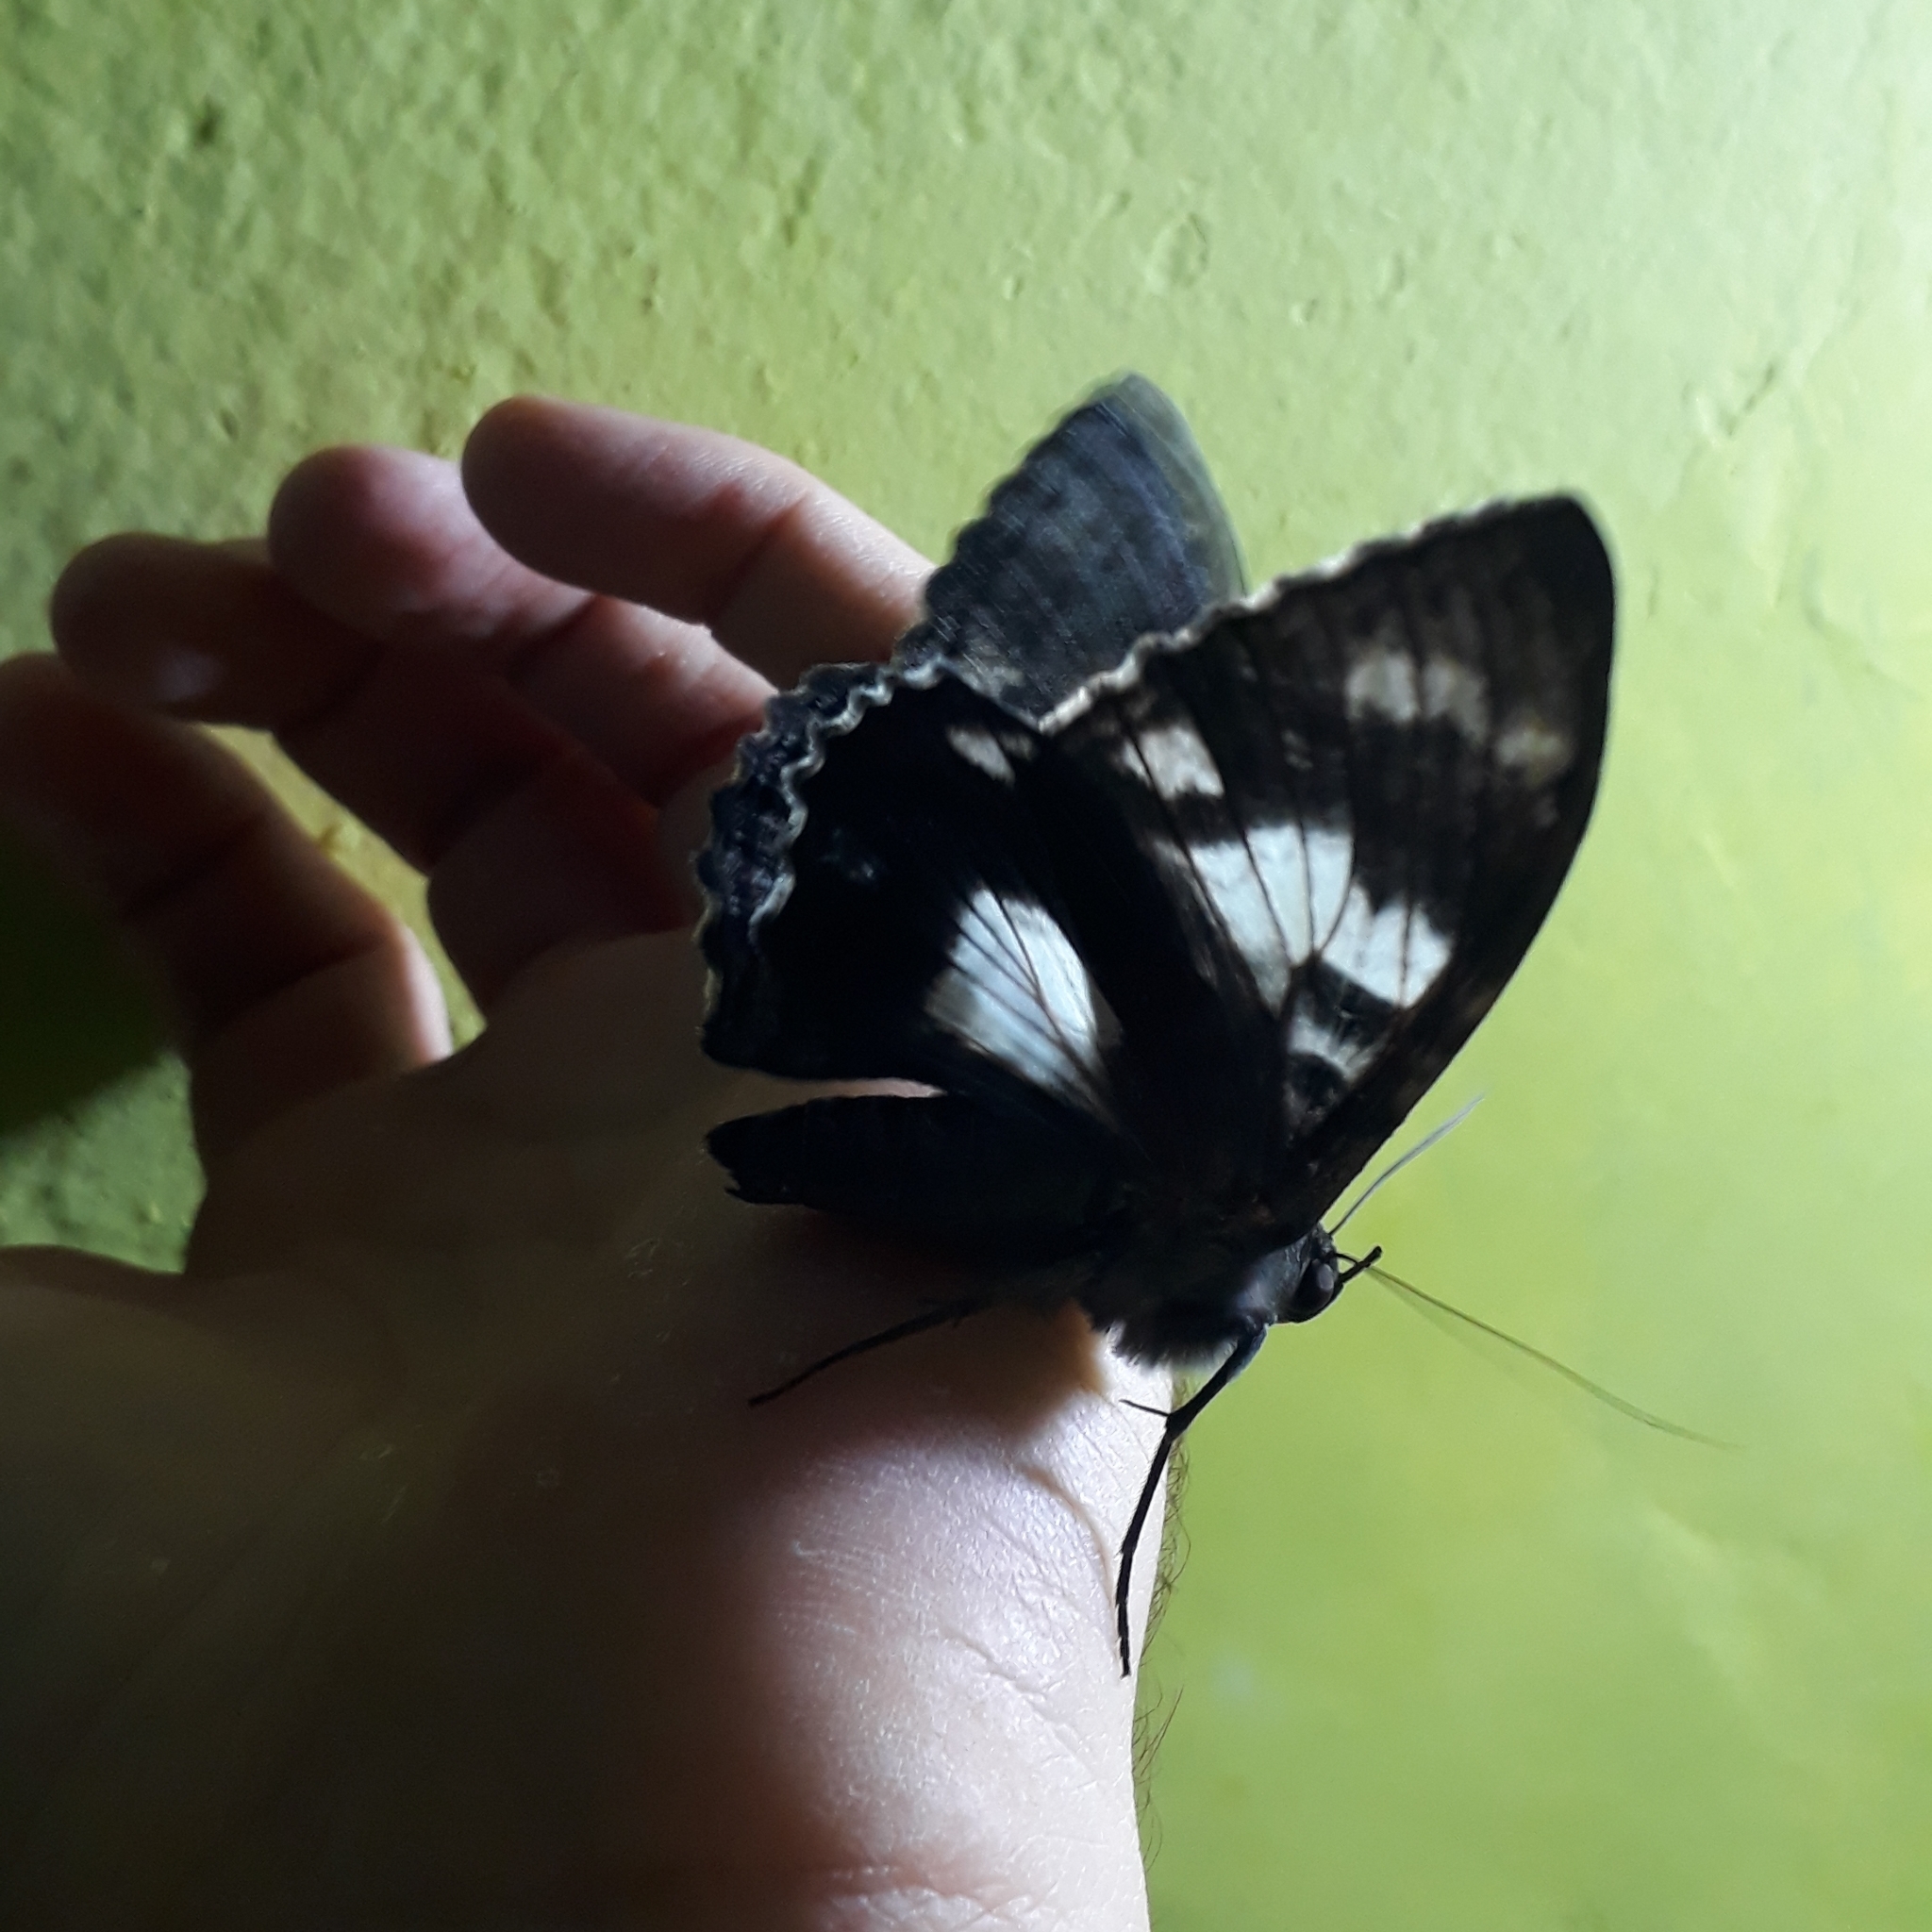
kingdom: Animalia
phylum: Arthropoda
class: Insecta
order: Lepidoptera
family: Erebidae
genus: Letis
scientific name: Letis specularis
